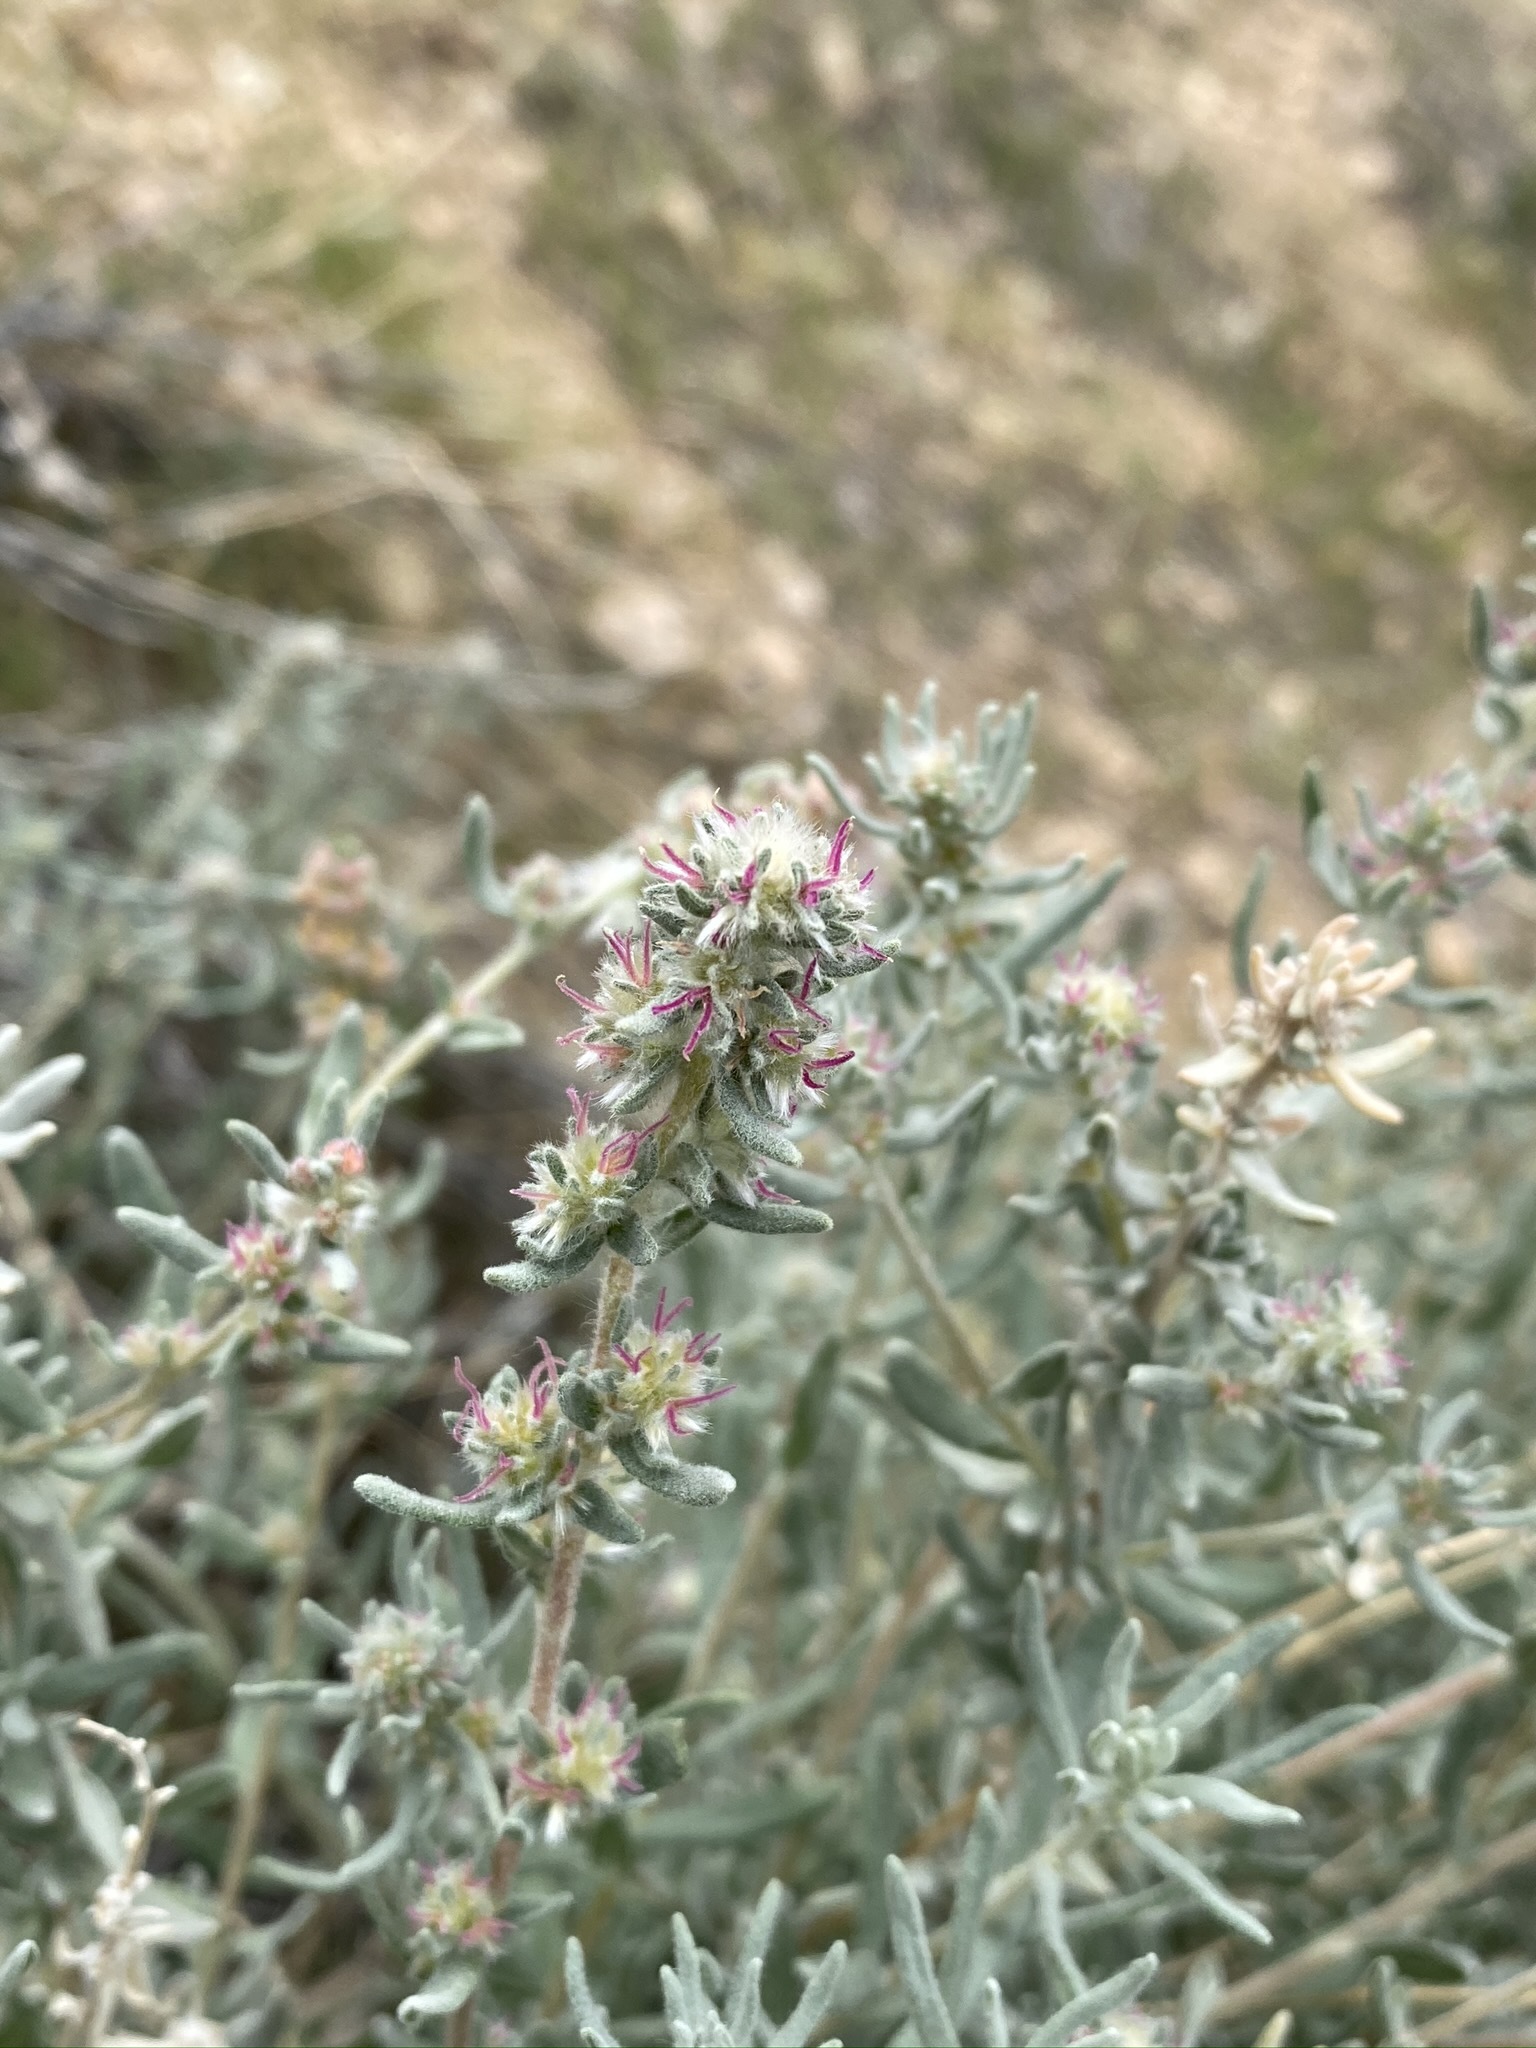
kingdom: Plantae
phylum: Tracheophyta
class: Magnoliopsida
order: Caryophyllales
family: Amaranthaceae
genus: Krascheninnikovia
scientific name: Krascheninnikovia lanata
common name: Winterfat
